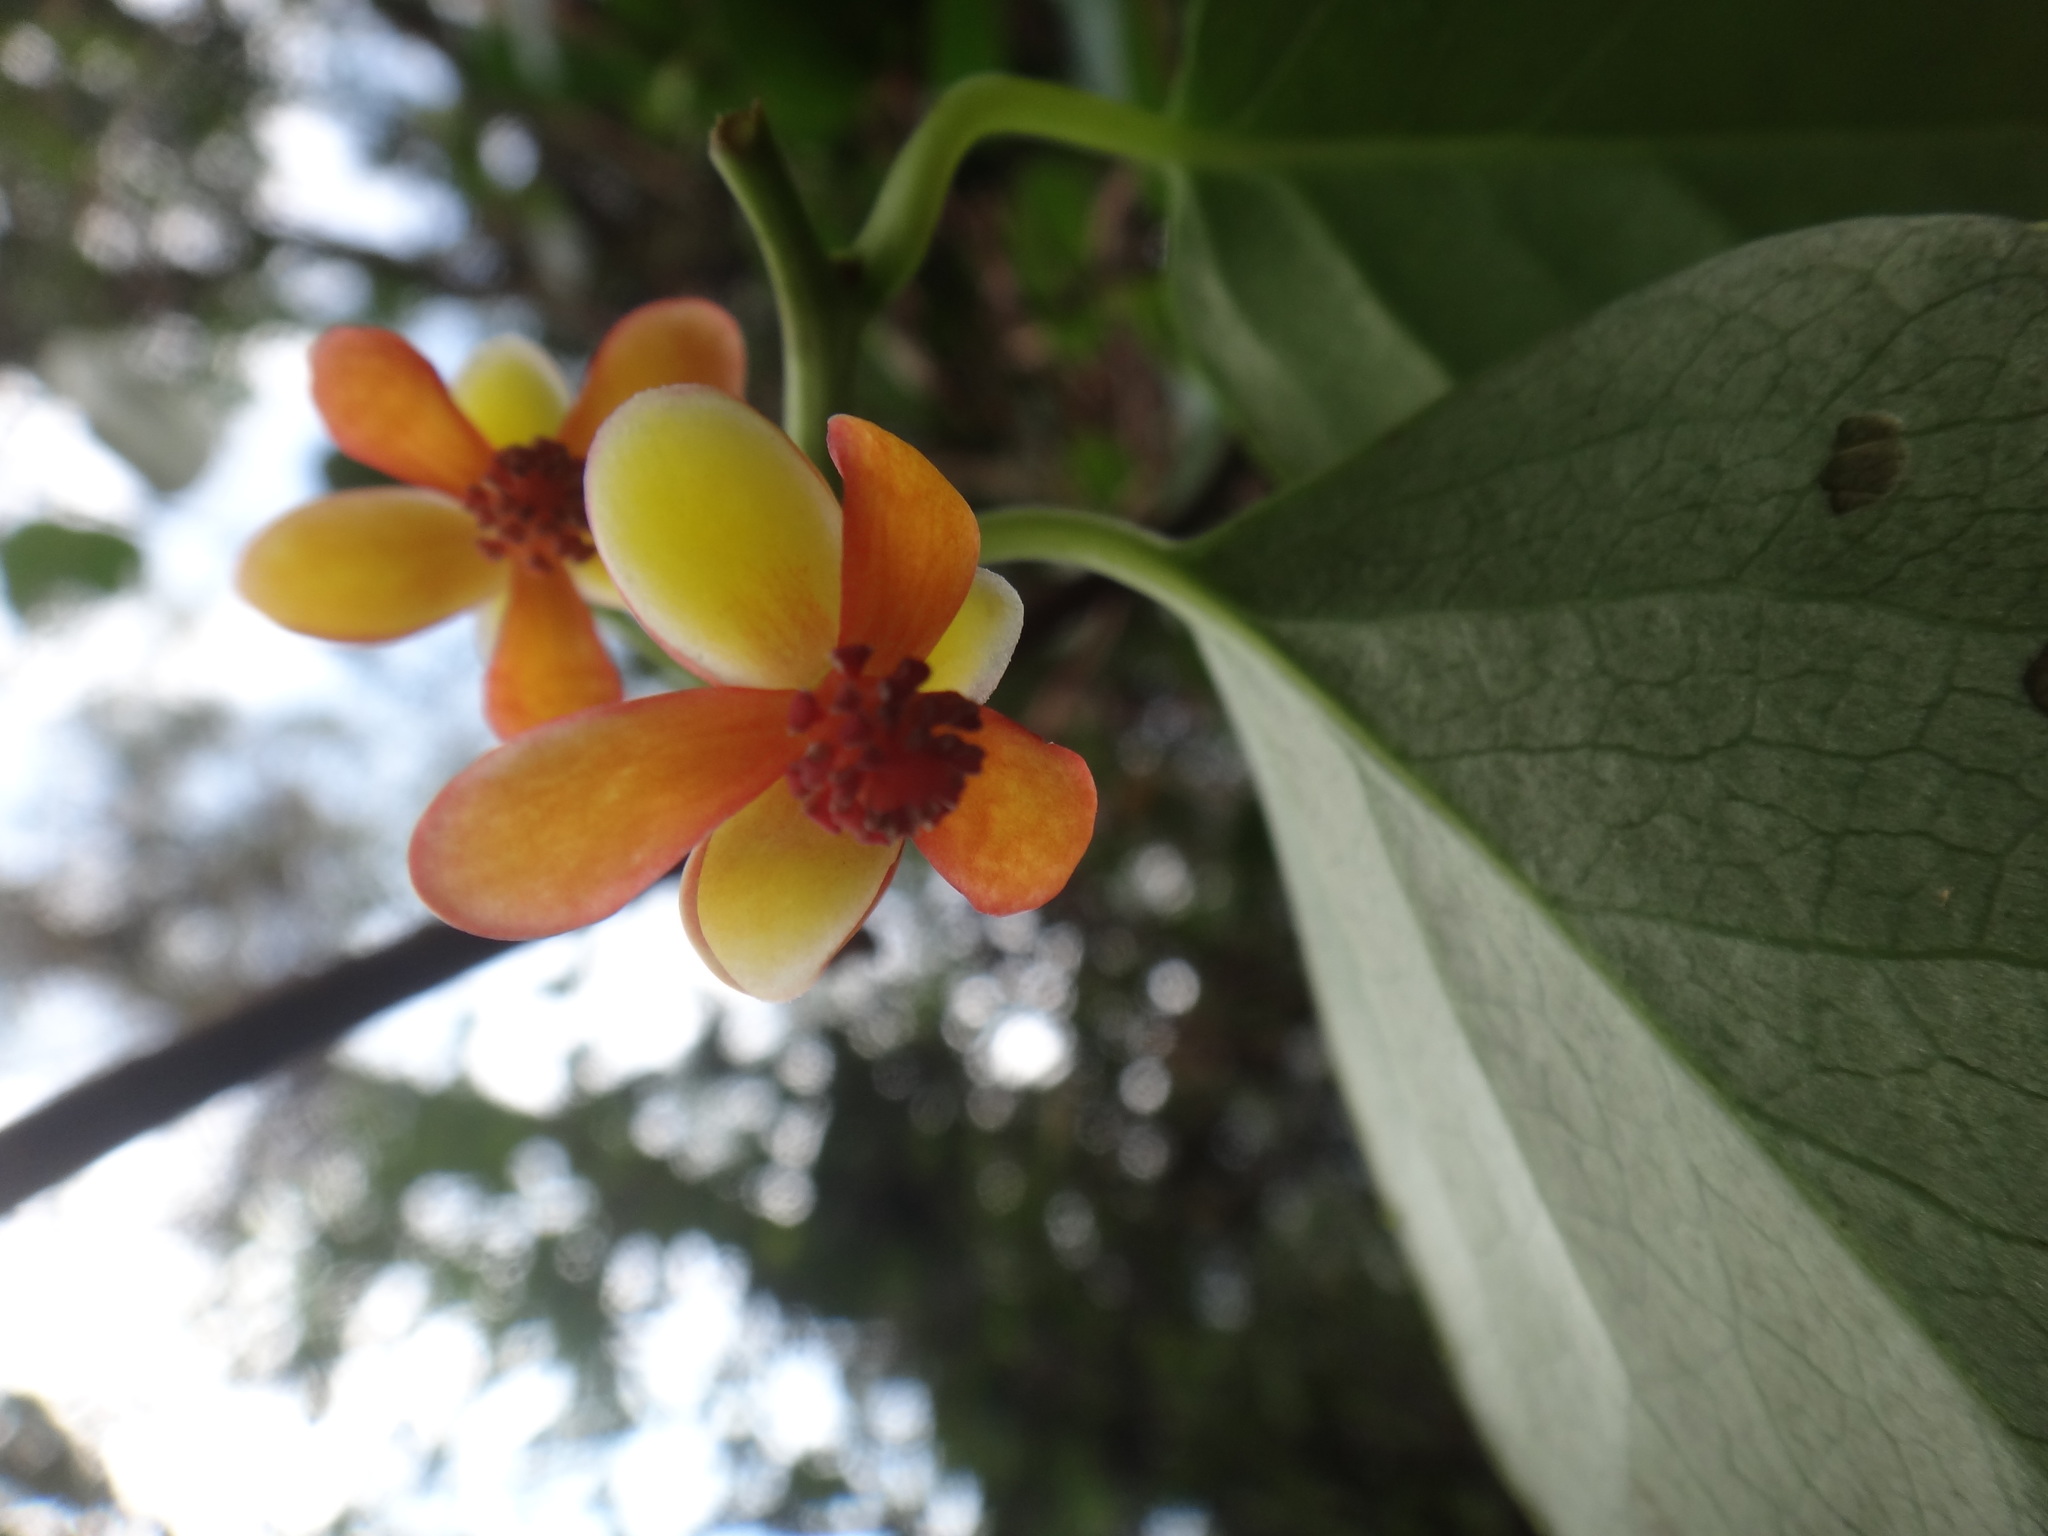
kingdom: Plantae
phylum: Tracheophyta
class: Magnoliopsida
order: Austrobaileyales
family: Schisandraceae
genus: Schisandra
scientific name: Schisandra arisanensis
